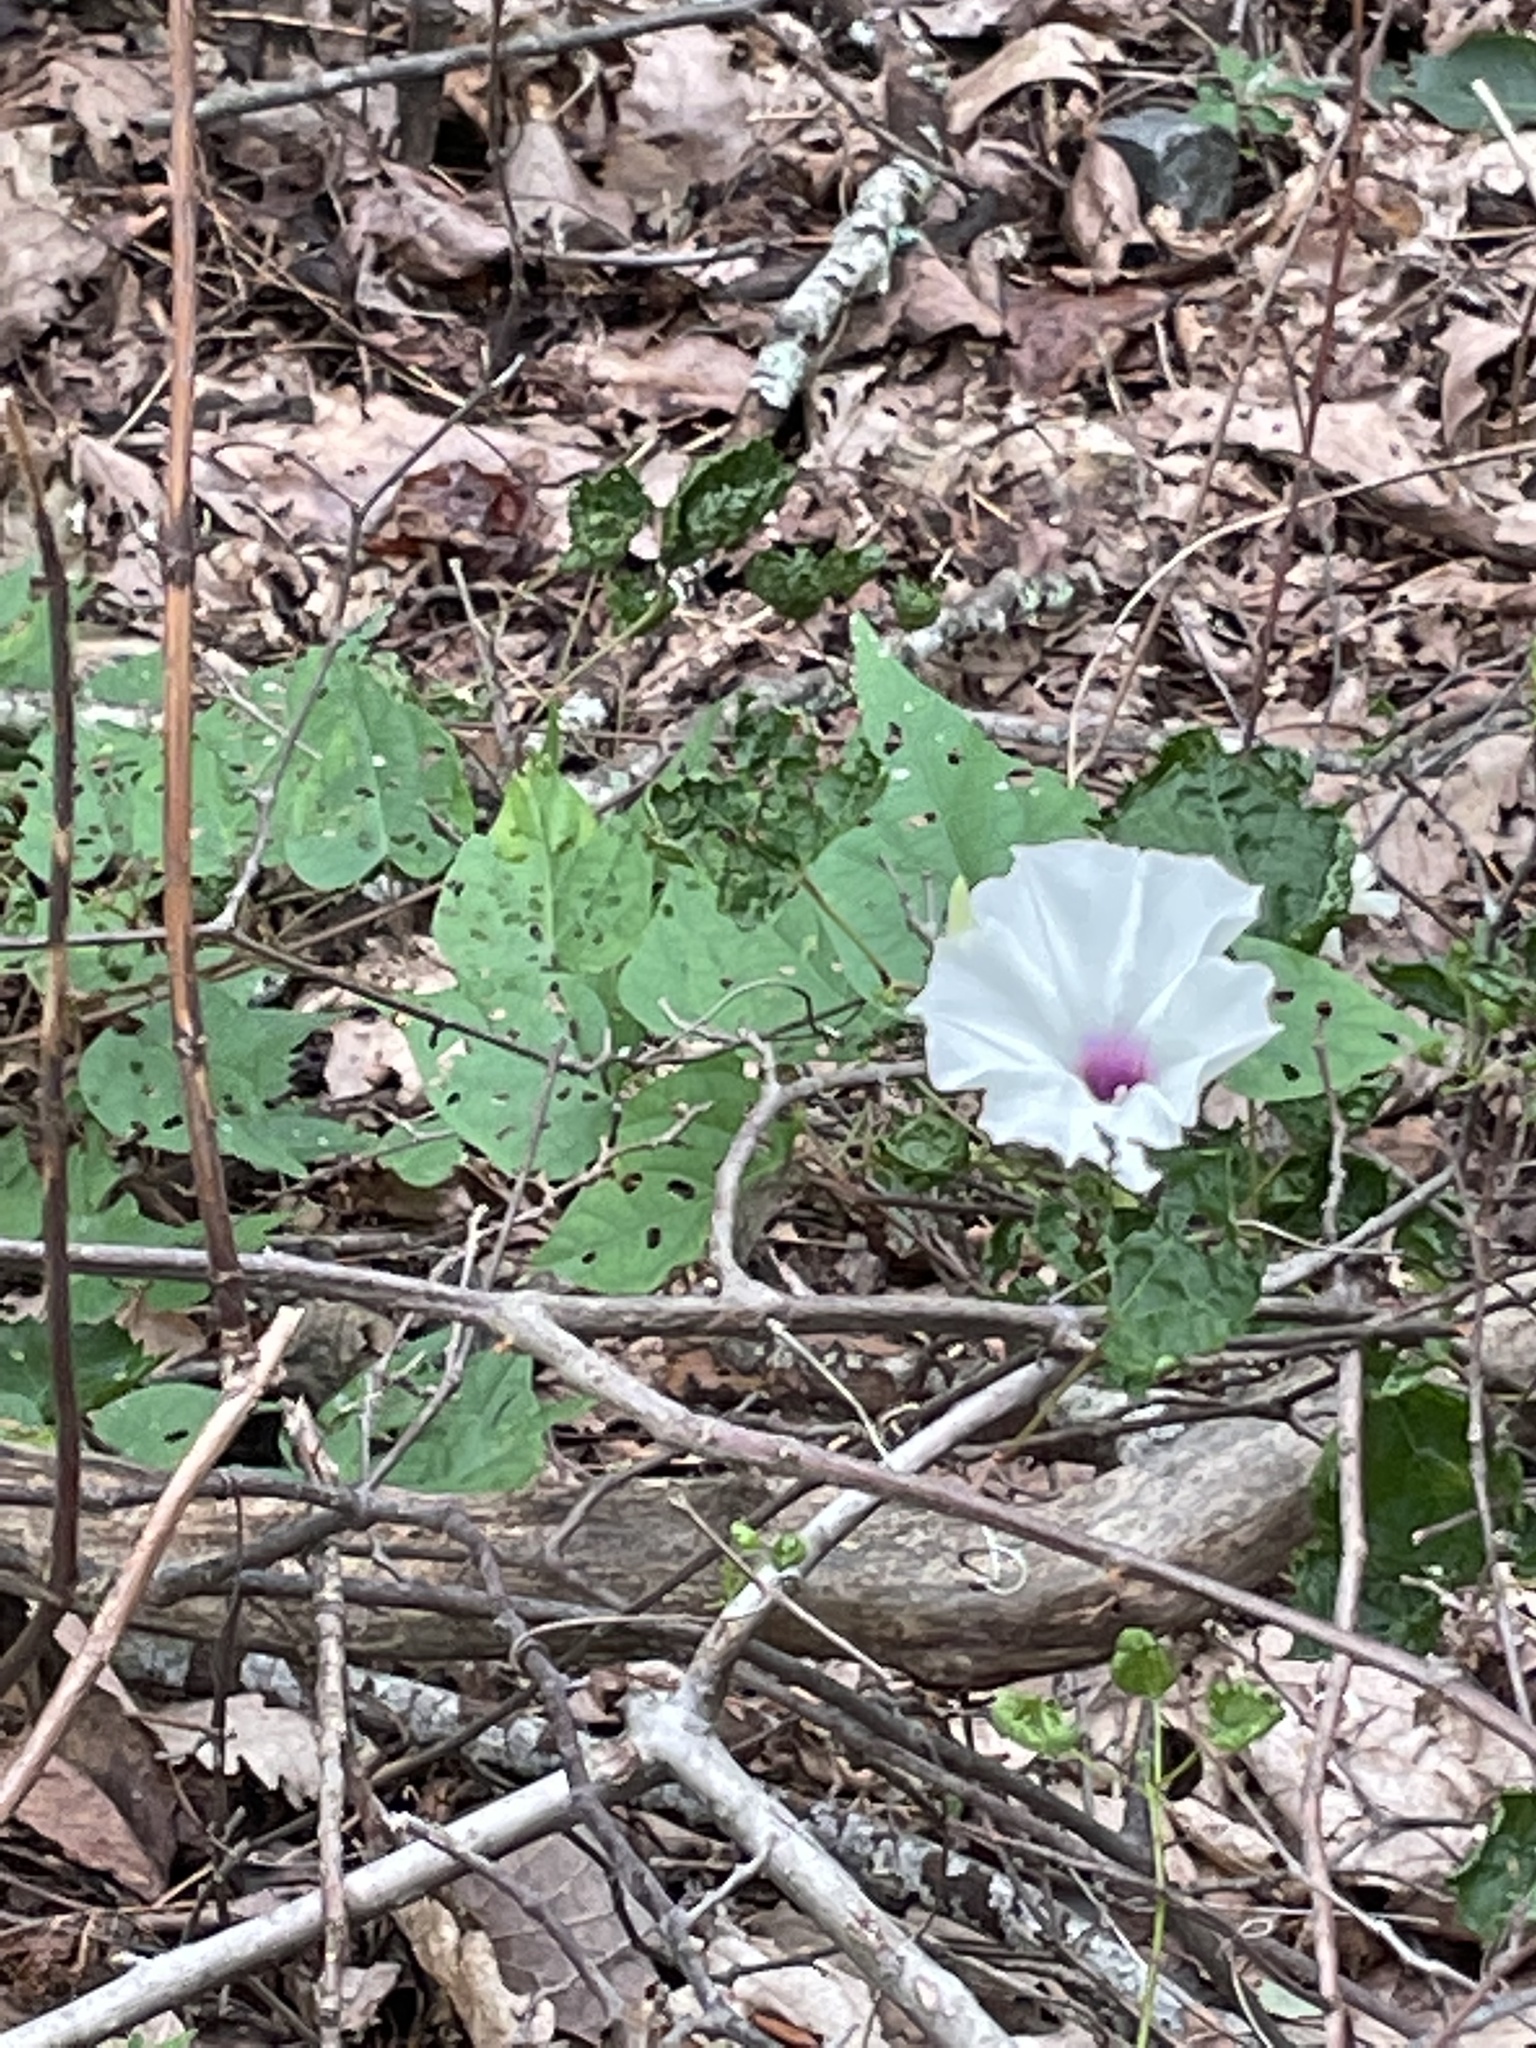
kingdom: Plantae
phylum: Tracheophyta
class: Magnoliopsida
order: Solanales
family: Convolvulaceae
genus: Ipomoea
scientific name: Ipomoea pandurata
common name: Man-of-the-earth
